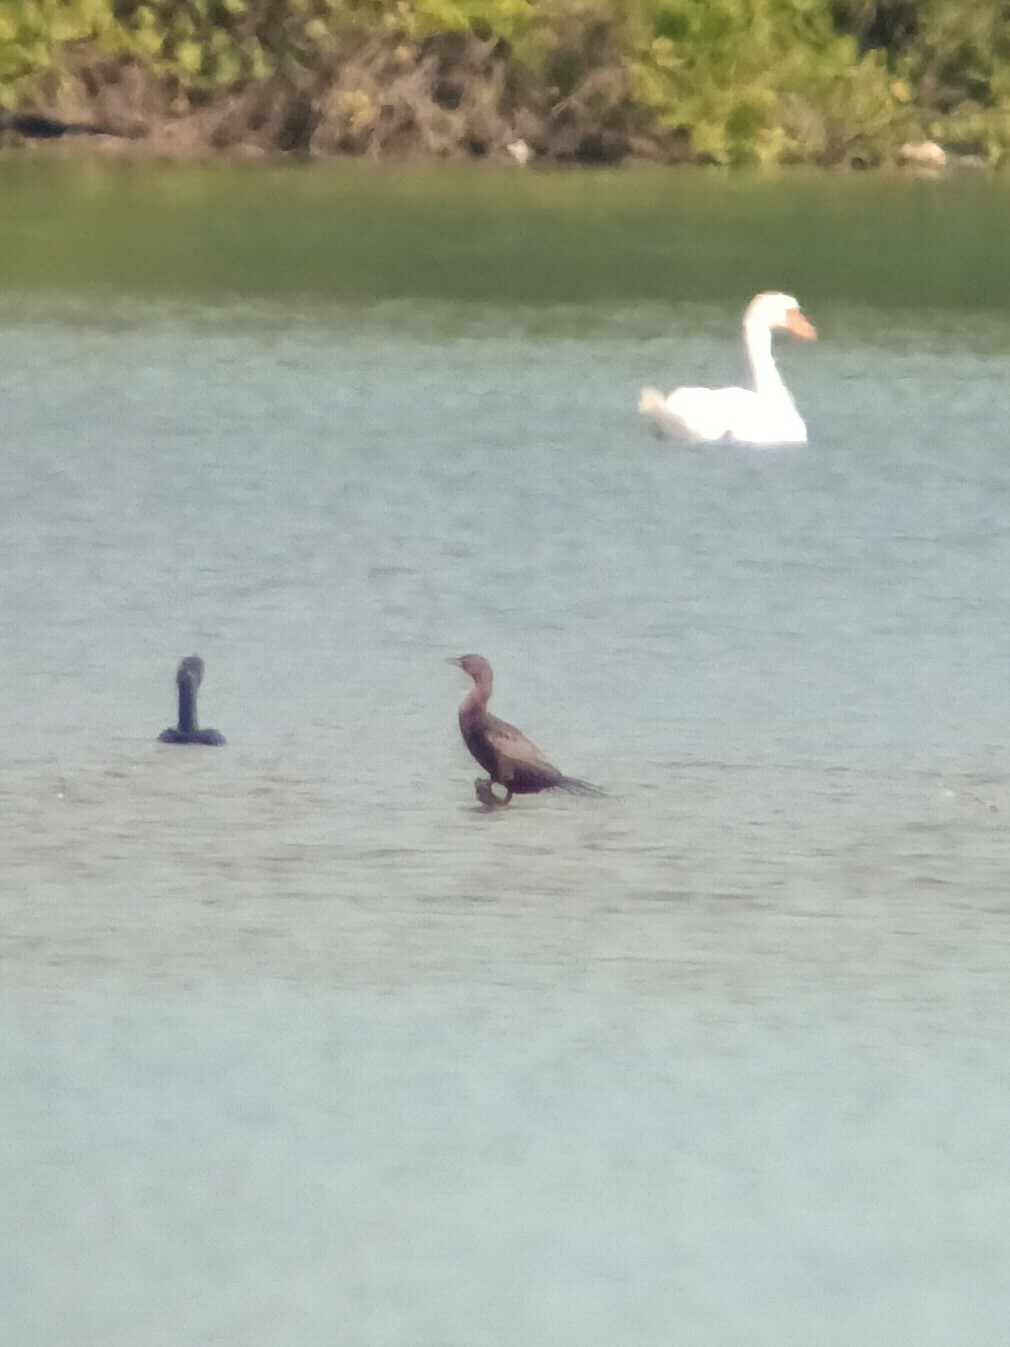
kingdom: Animalia
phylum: Chordata
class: Aves
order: Suliformes
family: Phalacrocoracidae
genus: Microcarbo
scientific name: Microcarbo pygmaeus
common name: Pygmy cormorant
